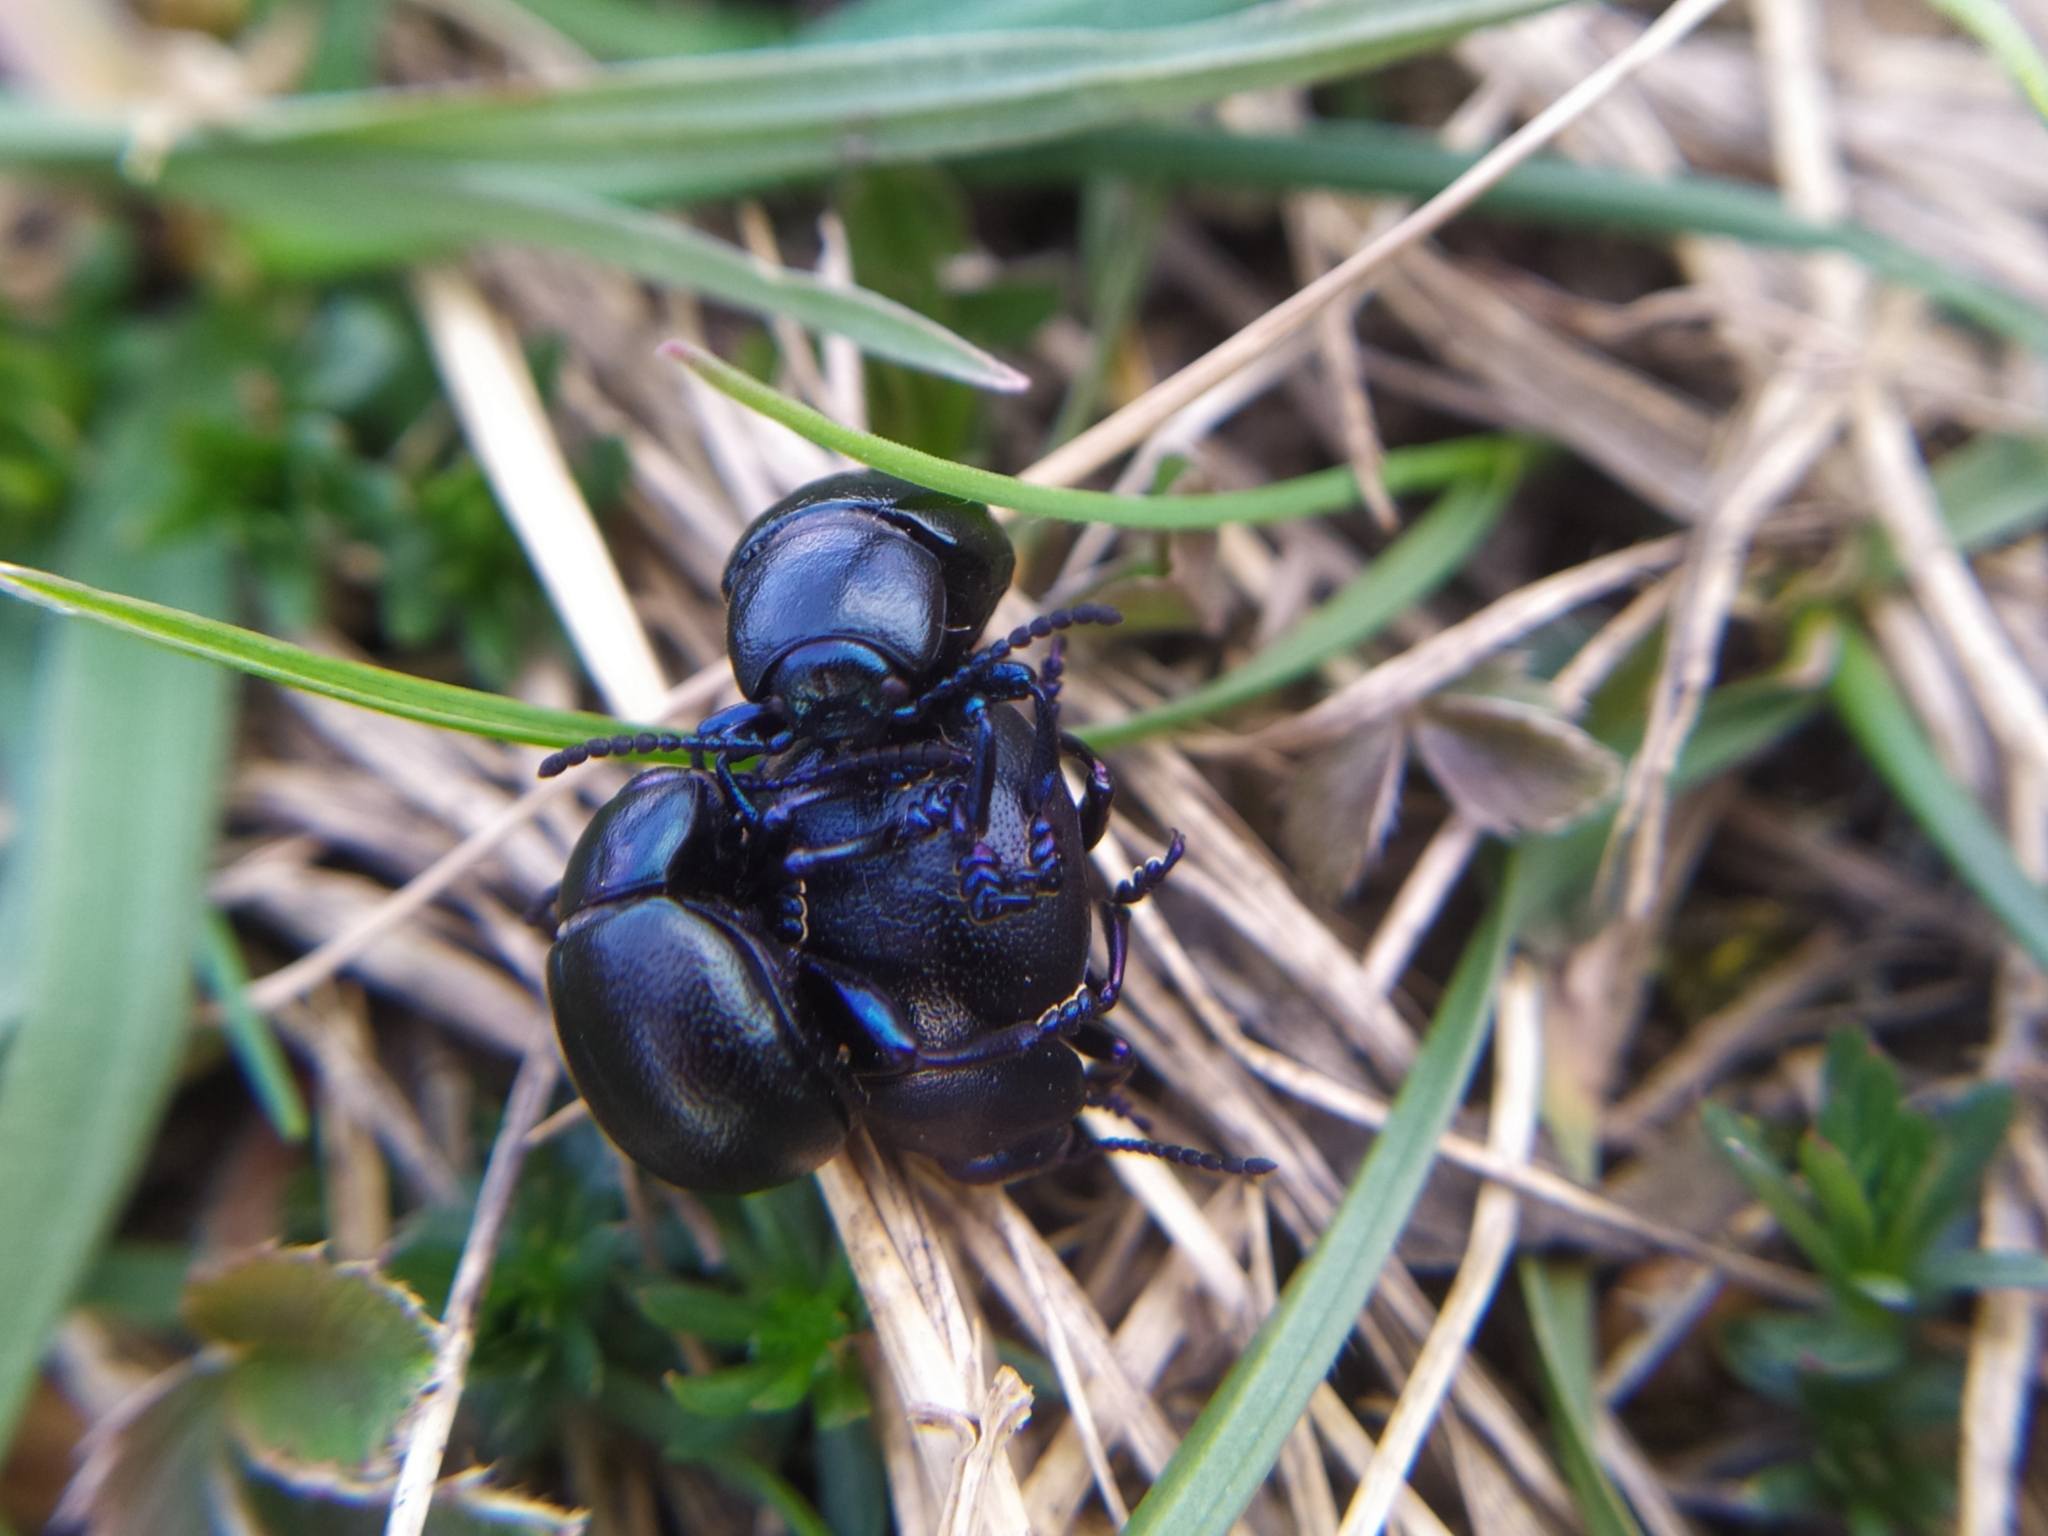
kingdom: Animalia
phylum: Arthropoda
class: Insecta
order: Coleoptera
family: Chrysomelidae
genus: Timarcha
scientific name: Timarcha goettingensis
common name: Small bloody-nosed beetle
